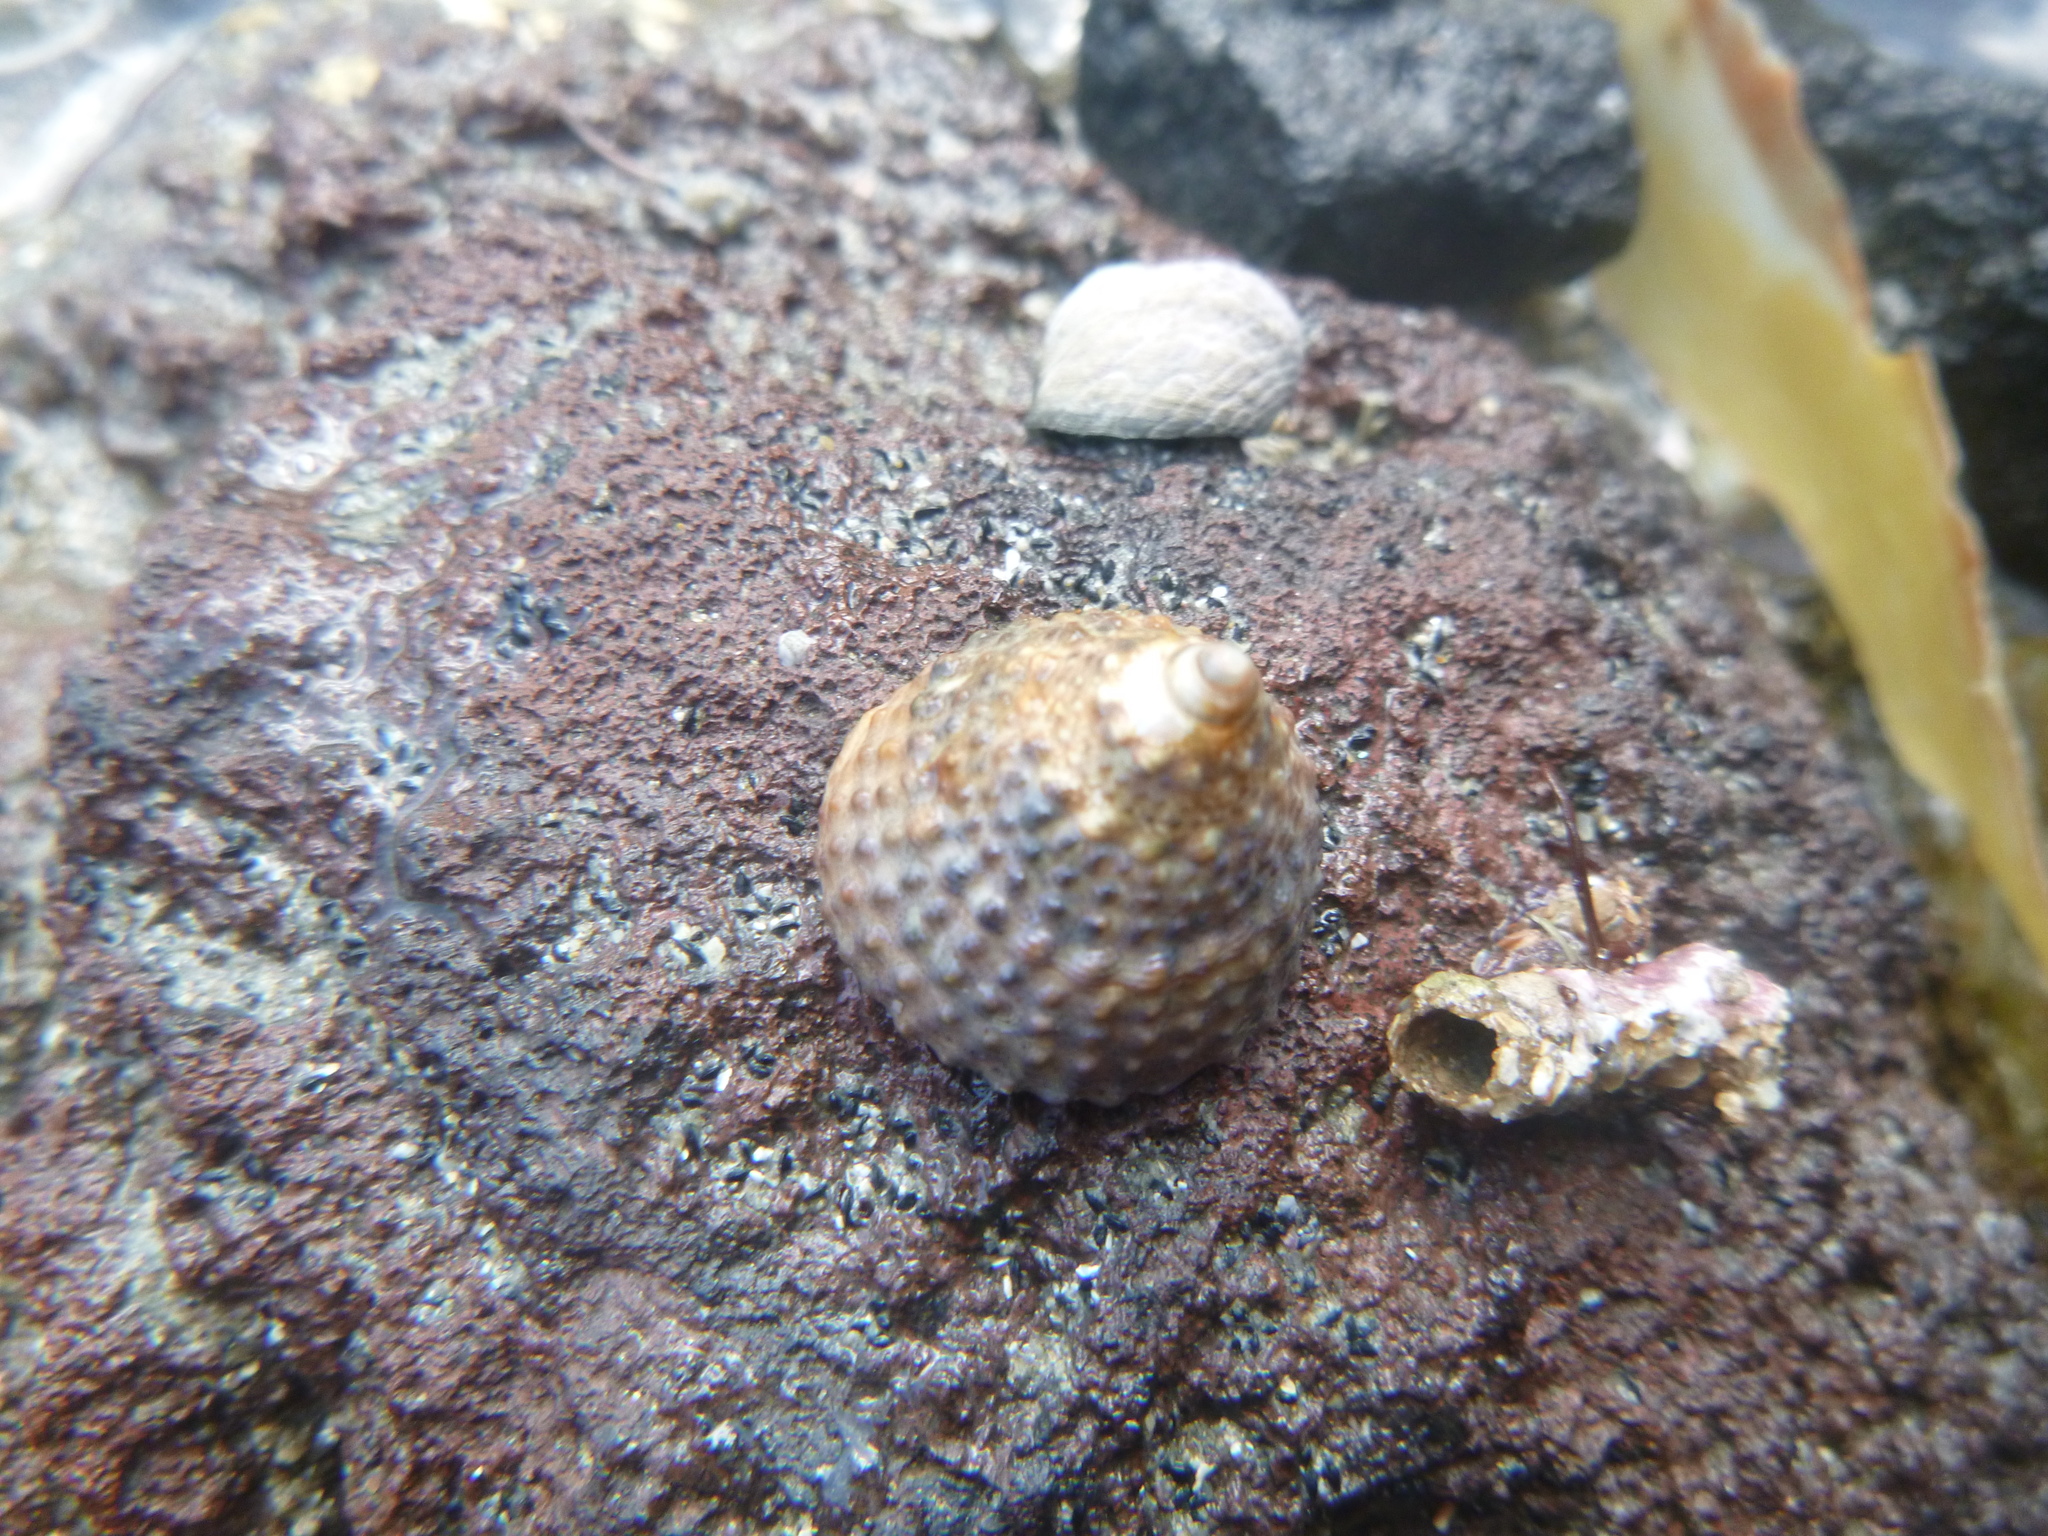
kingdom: Animalia
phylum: Mollusca
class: Gastropoda
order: Trochida
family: Trochidae
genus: Coelotrochus
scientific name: Coelotrochus viridis
